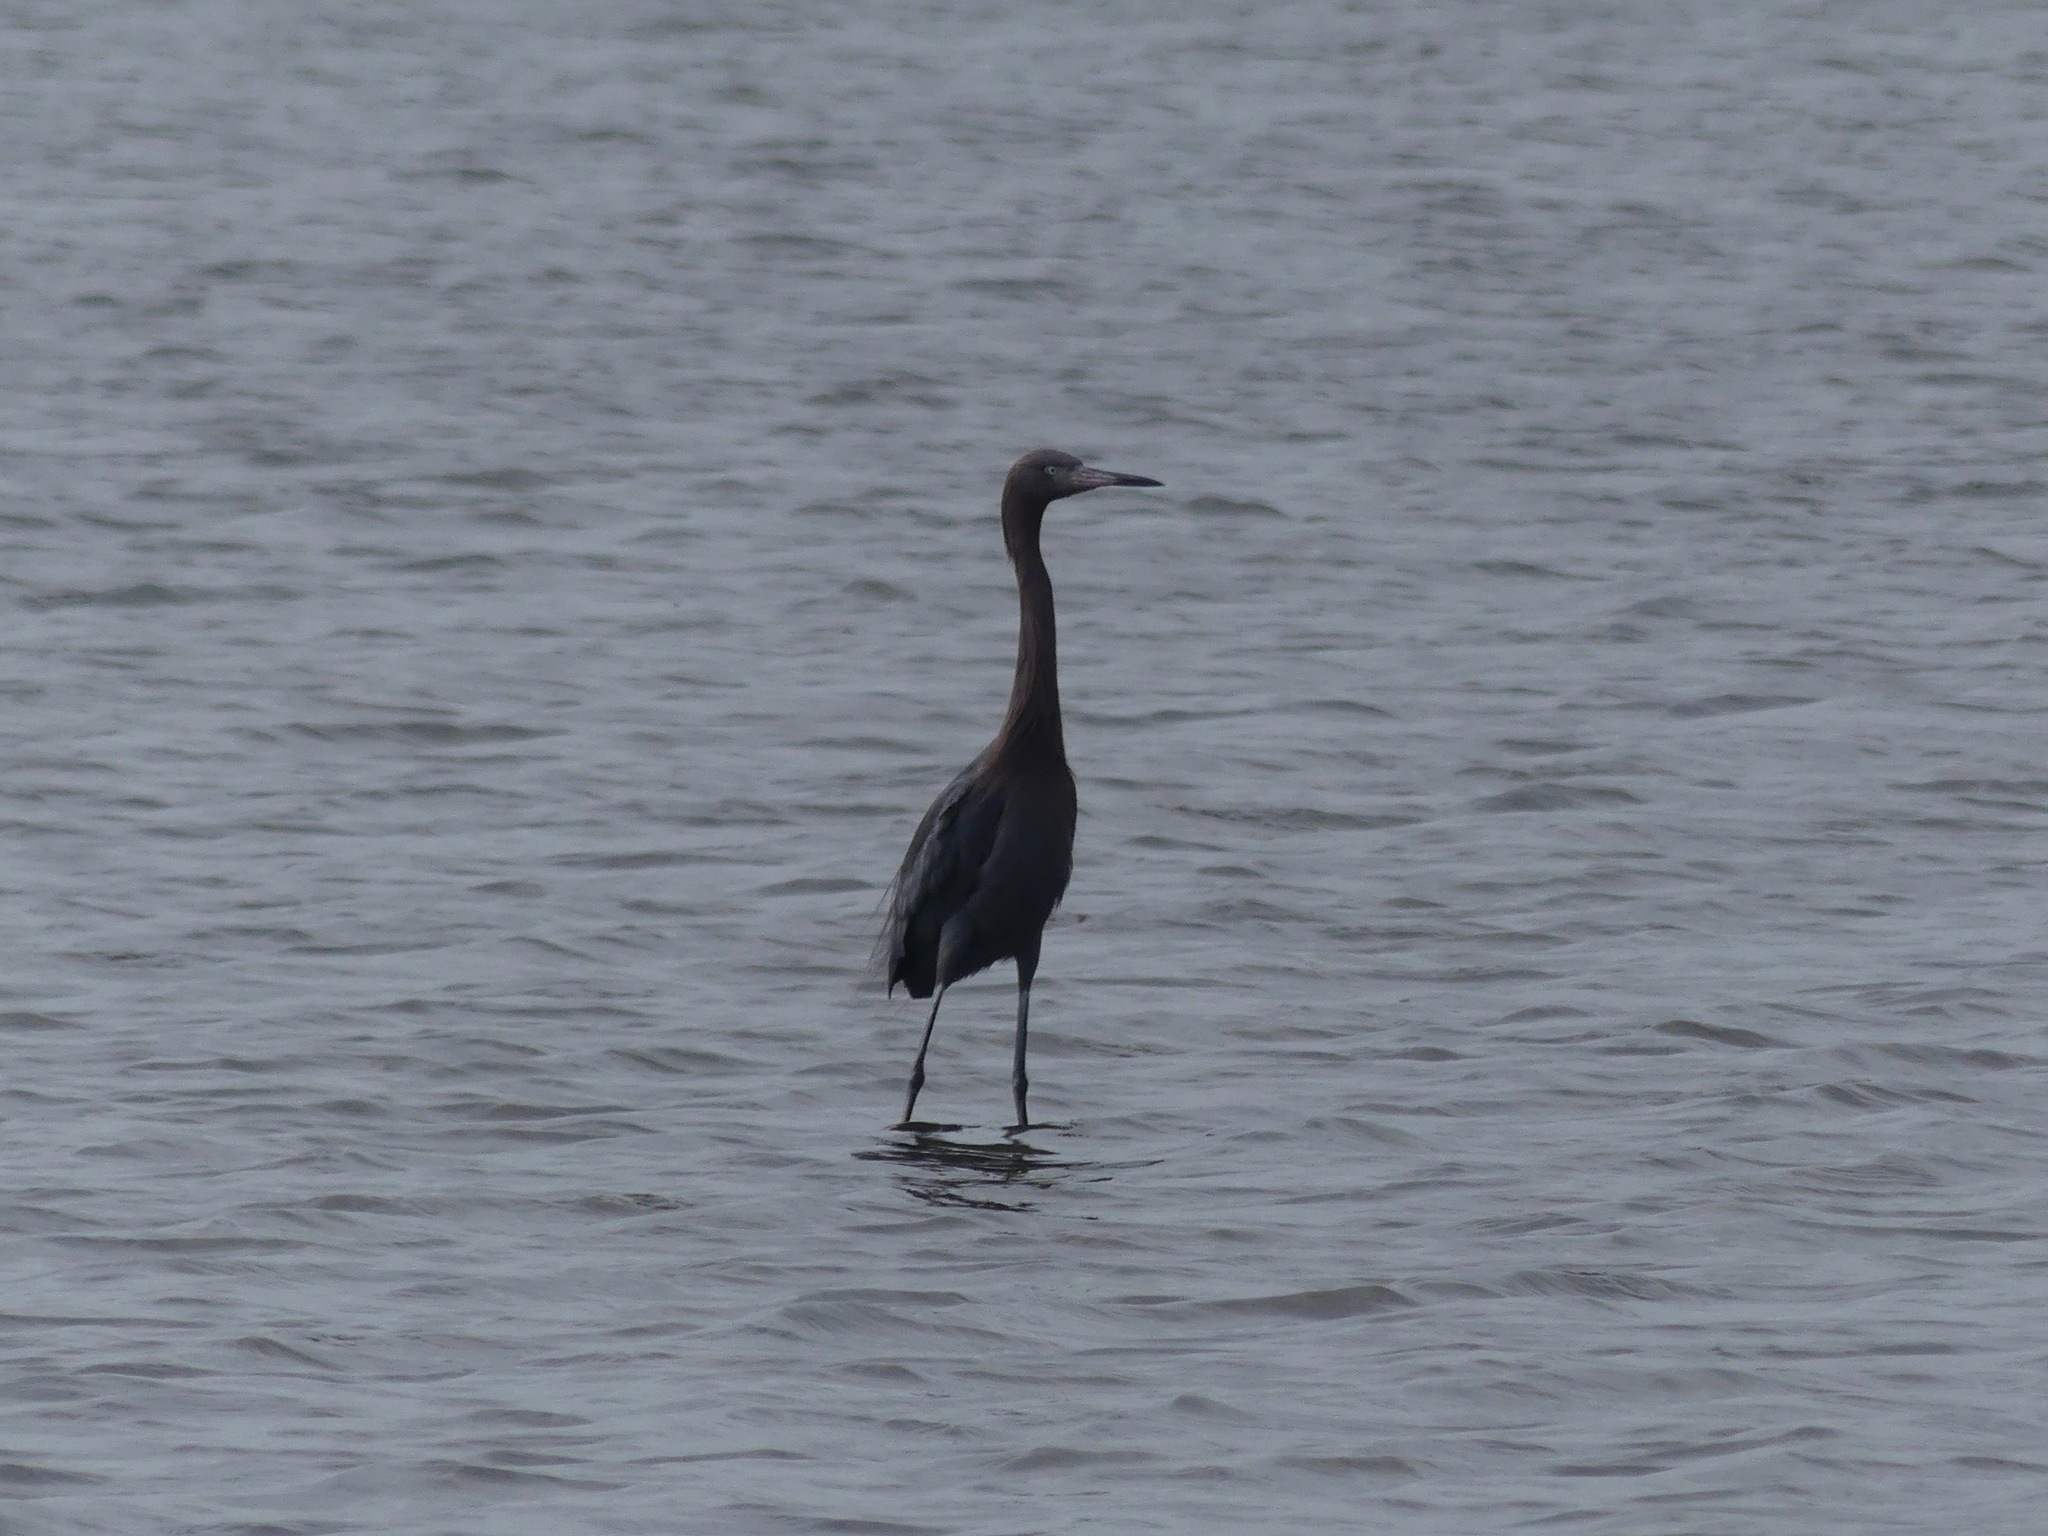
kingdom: Animalia
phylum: Chordata
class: Aves
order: Pelecaniformes
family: Ardeidae
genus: Egretta
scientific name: Egretta rufescens
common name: Reddish egret
